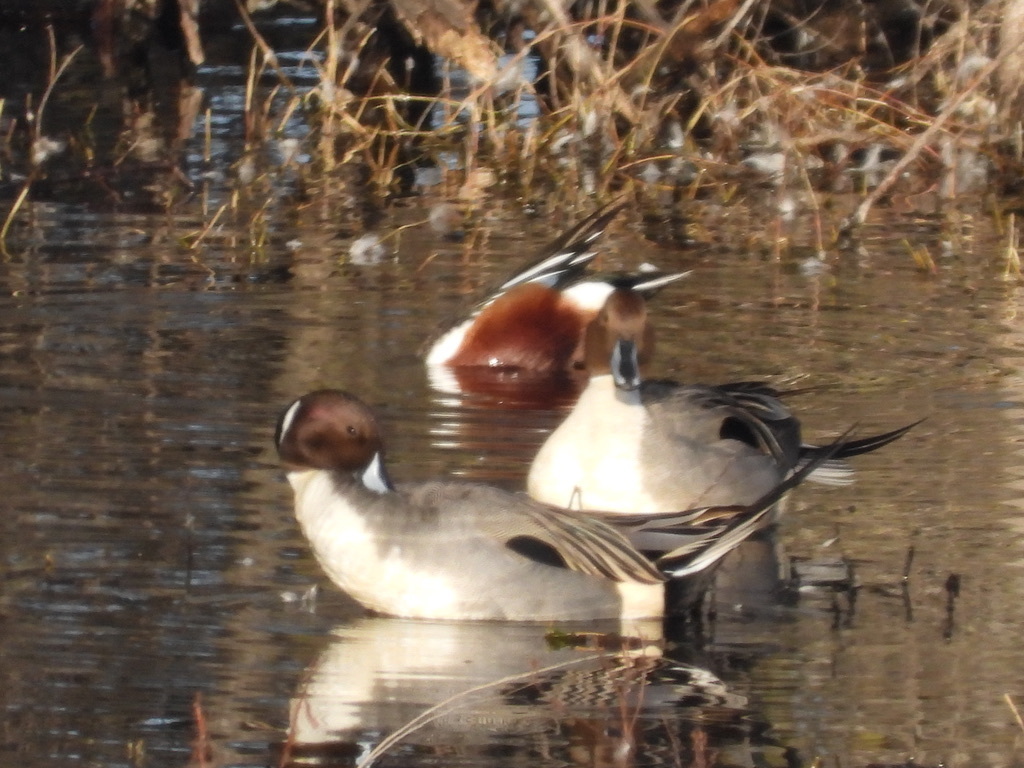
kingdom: Animalia
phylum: Chordata
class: Aves
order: Anseriformes
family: Anatidae
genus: Anas
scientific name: Anas acuta
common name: Northern pintail
